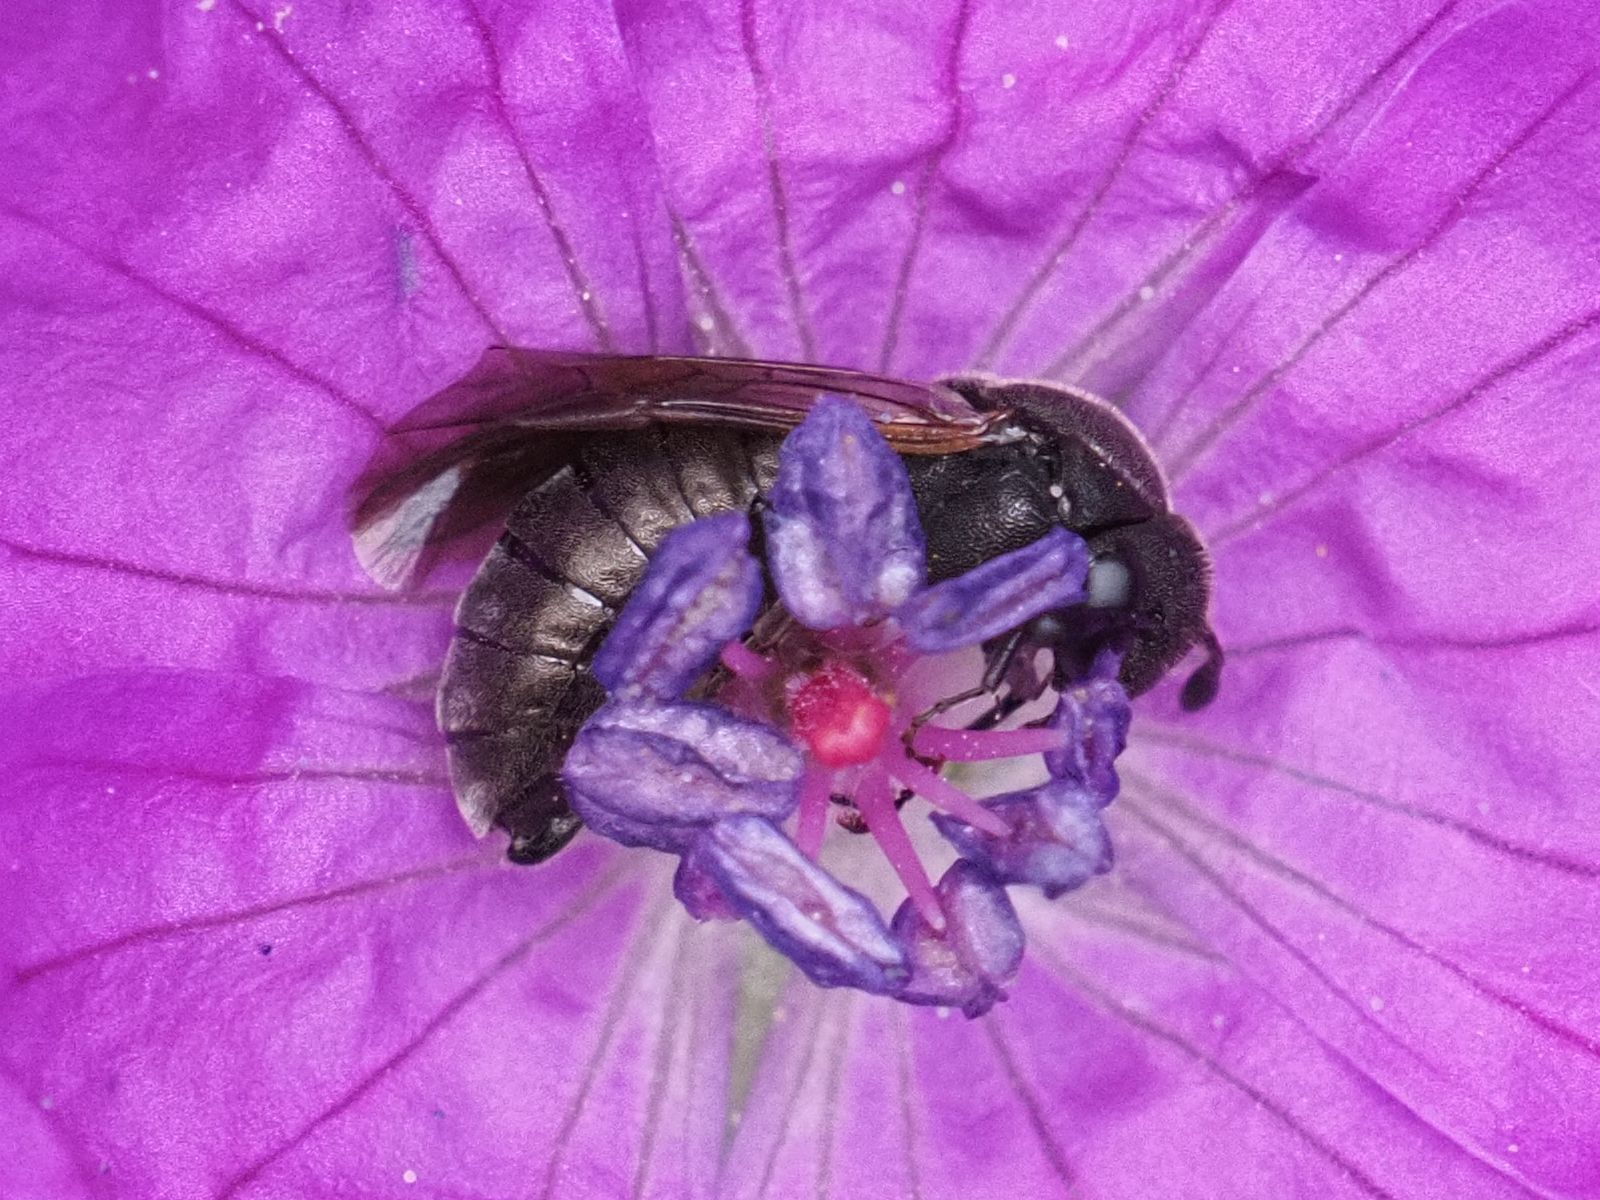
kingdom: Animalia
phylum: Arthropoda
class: Insecta
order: Hymenoptera
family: Cimbicidae
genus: Corynis
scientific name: Corynis obscura
